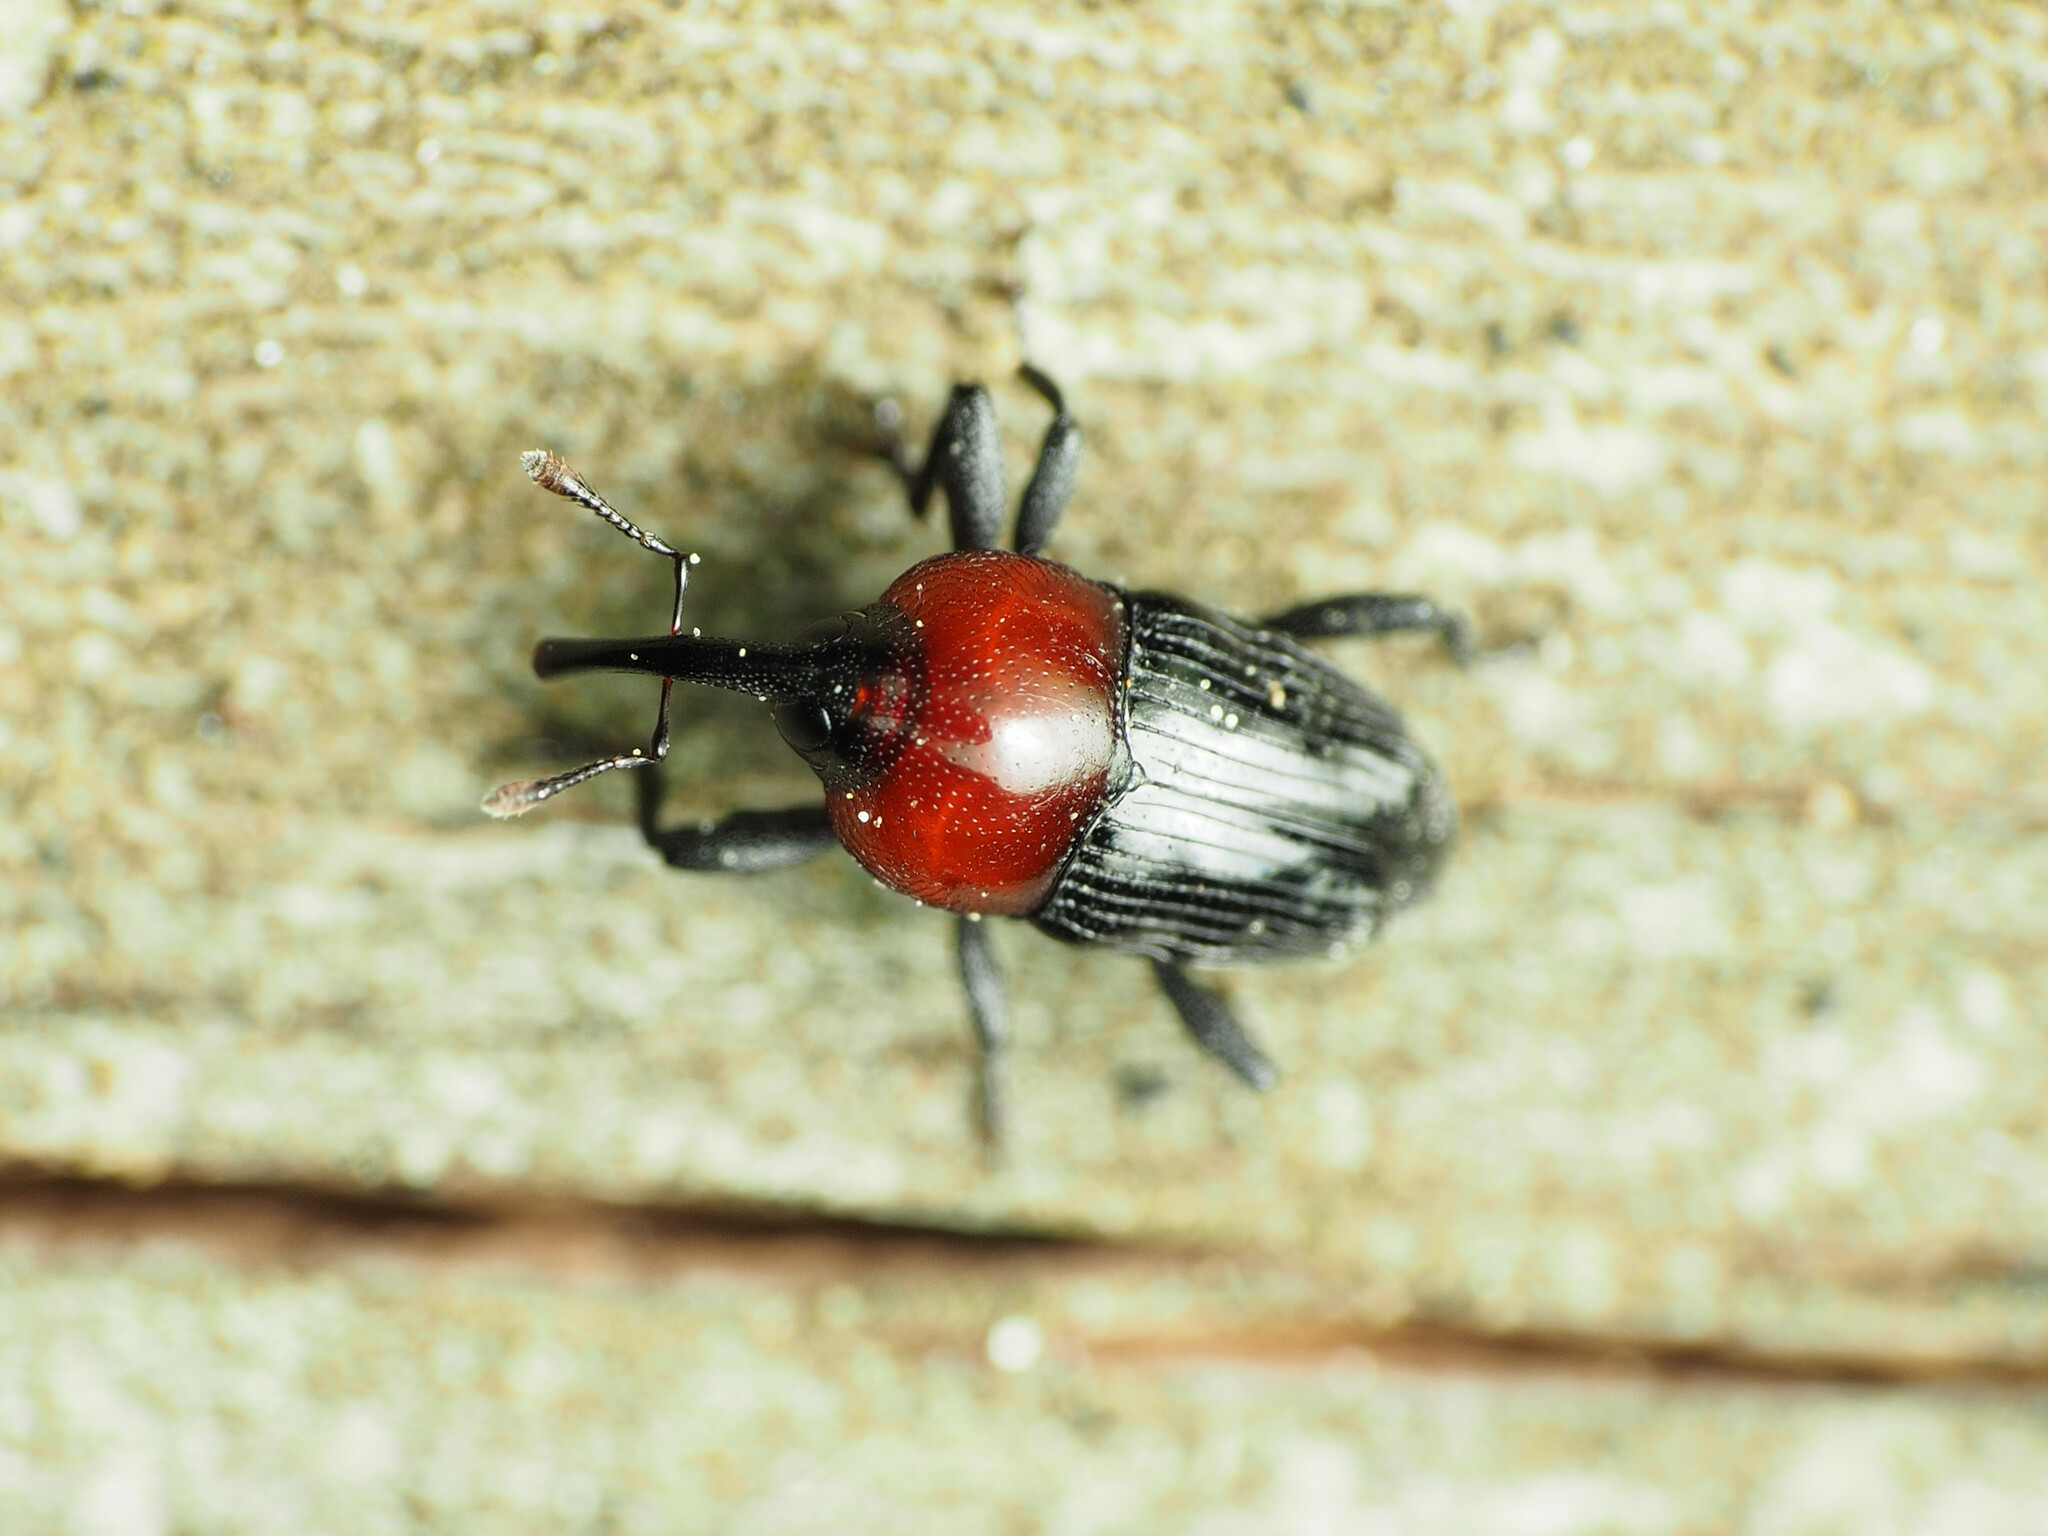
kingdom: Animalia
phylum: Arthropoda
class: Insecta
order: Coleoptera
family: Curculionidae
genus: Madarellus
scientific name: Madarellus undulatus
